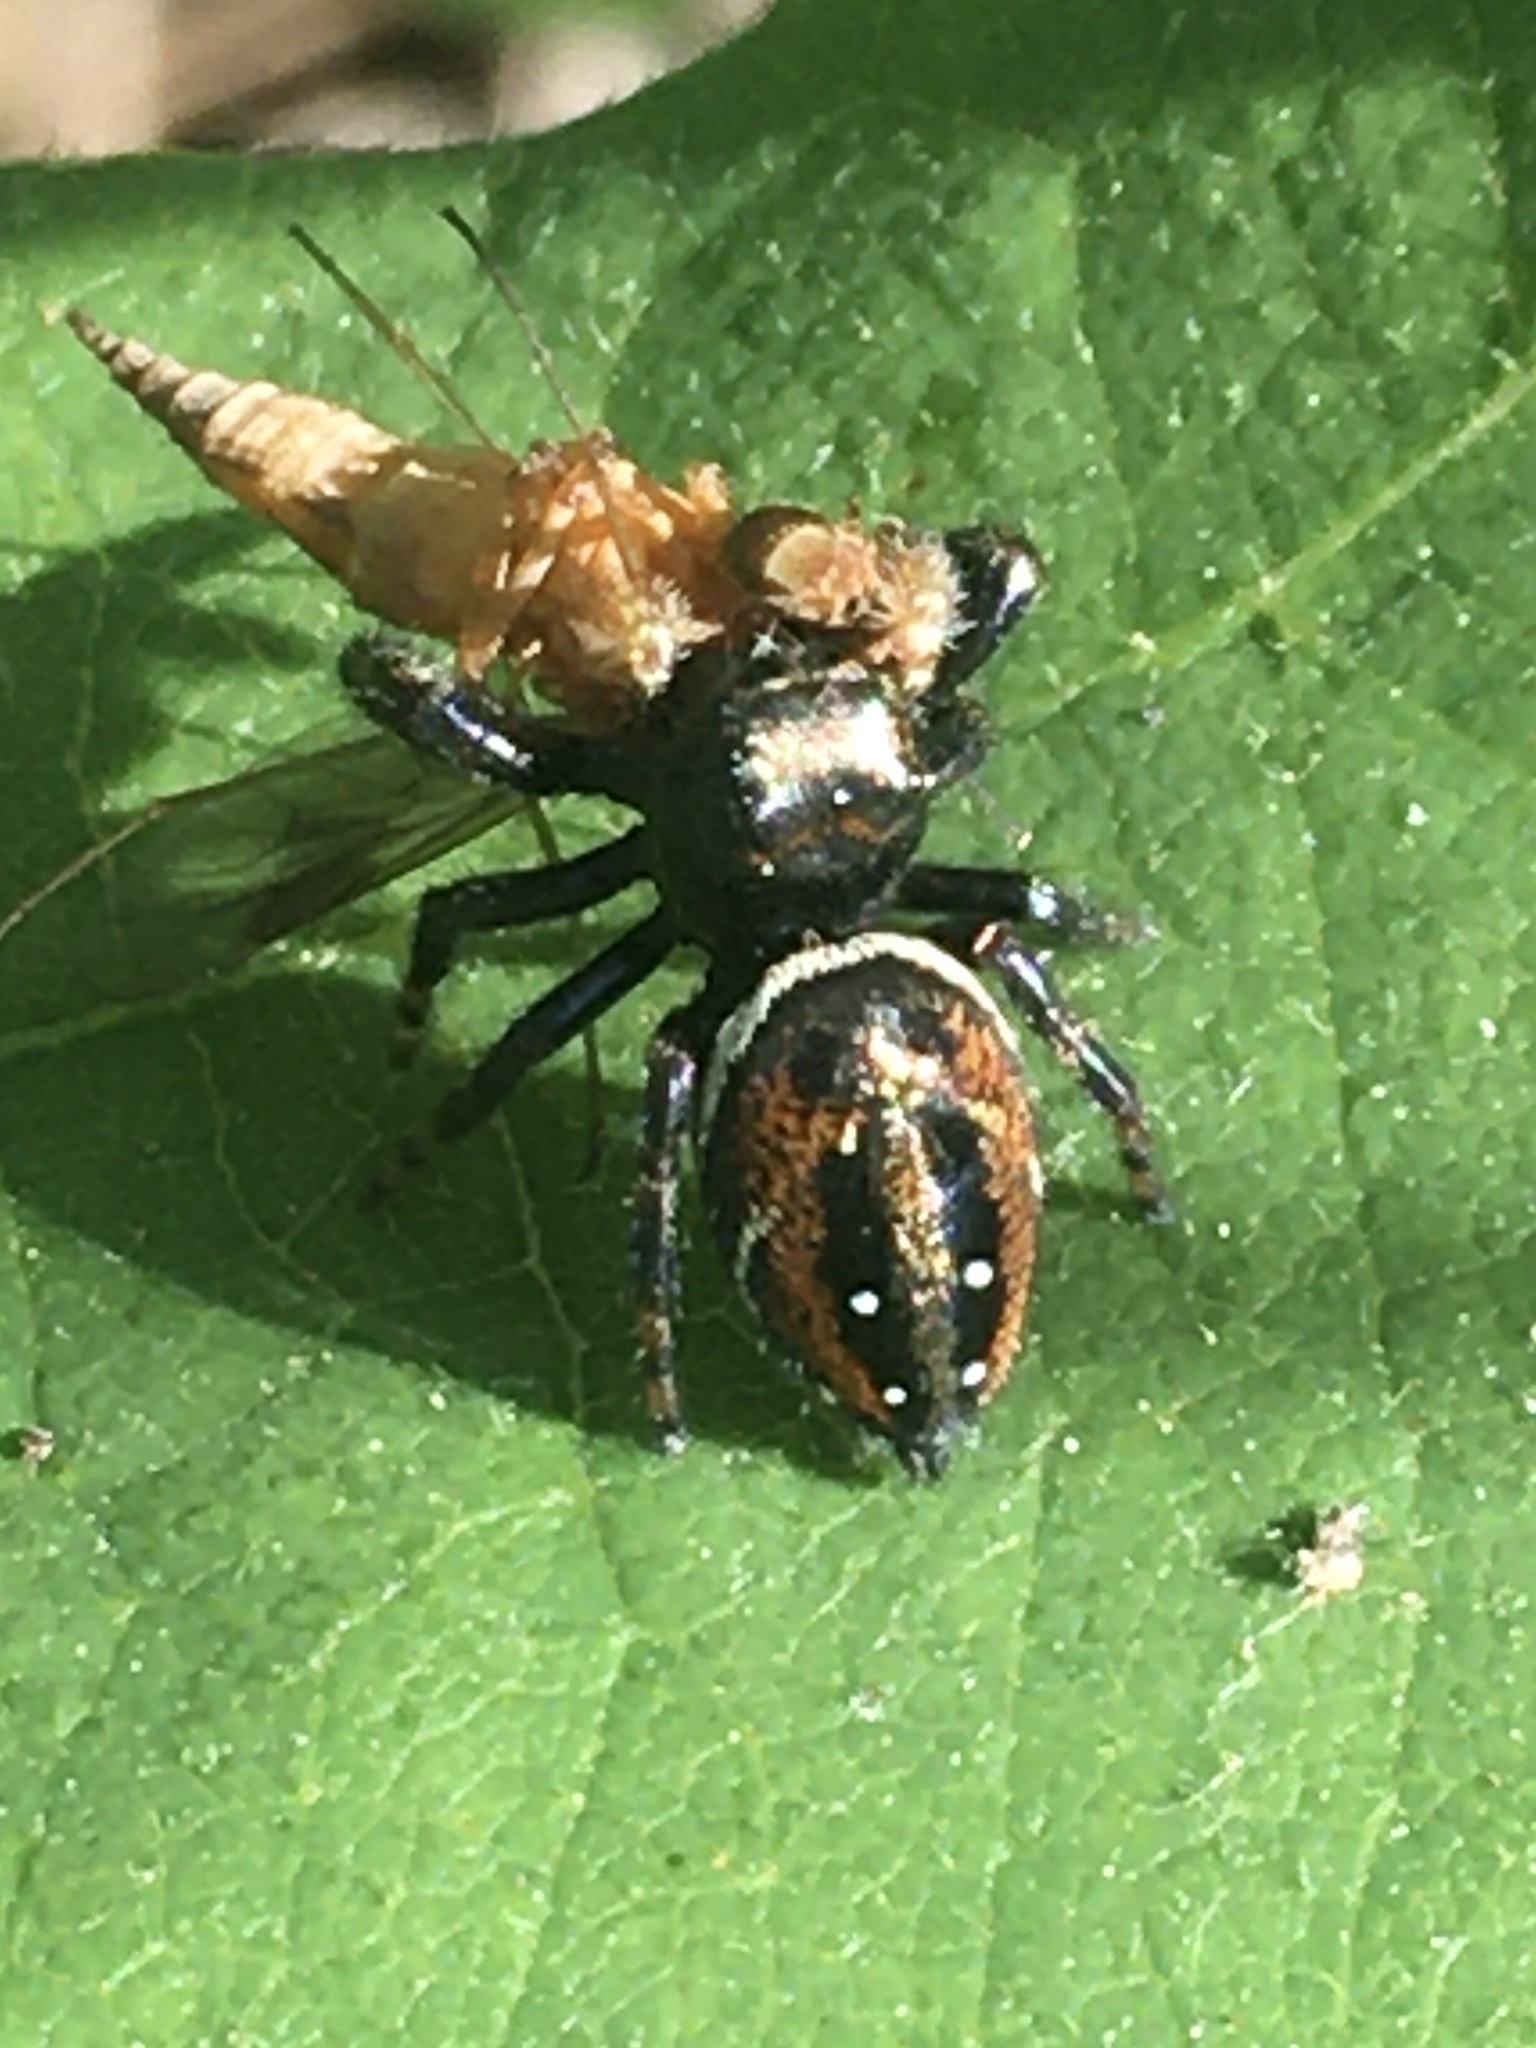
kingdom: Animalia
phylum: Arthropoda
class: Arachnida
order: Araneae
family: Salticidae
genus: Phidippus
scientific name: Phidippus clarus
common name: Brilliant jumping spider
